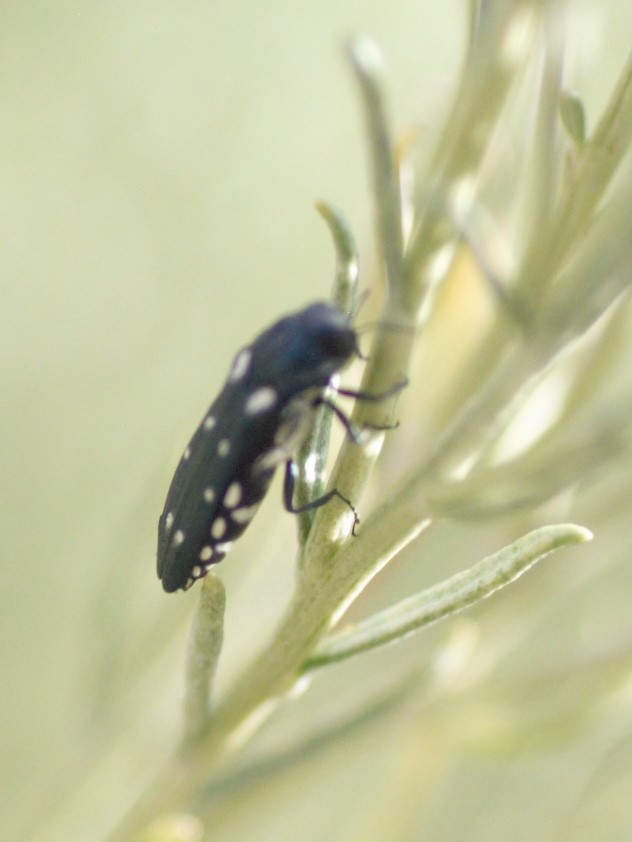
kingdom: Animalia
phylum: Arthropoda
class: Insecta
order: Coleoptera
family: Buprestidae
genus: Agrilus
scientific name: Agrilus walsinghami
